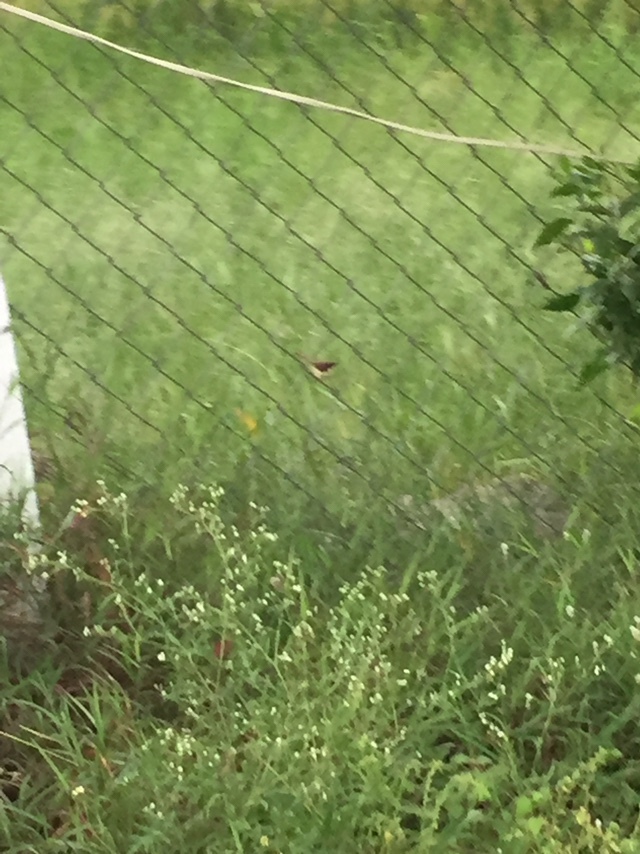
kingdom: Animalia
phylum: Chordata
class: Aves
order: Passeriformes
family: Cisticolidae
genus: Prinia
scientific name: Prinia socialis
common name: Ashy prinia
